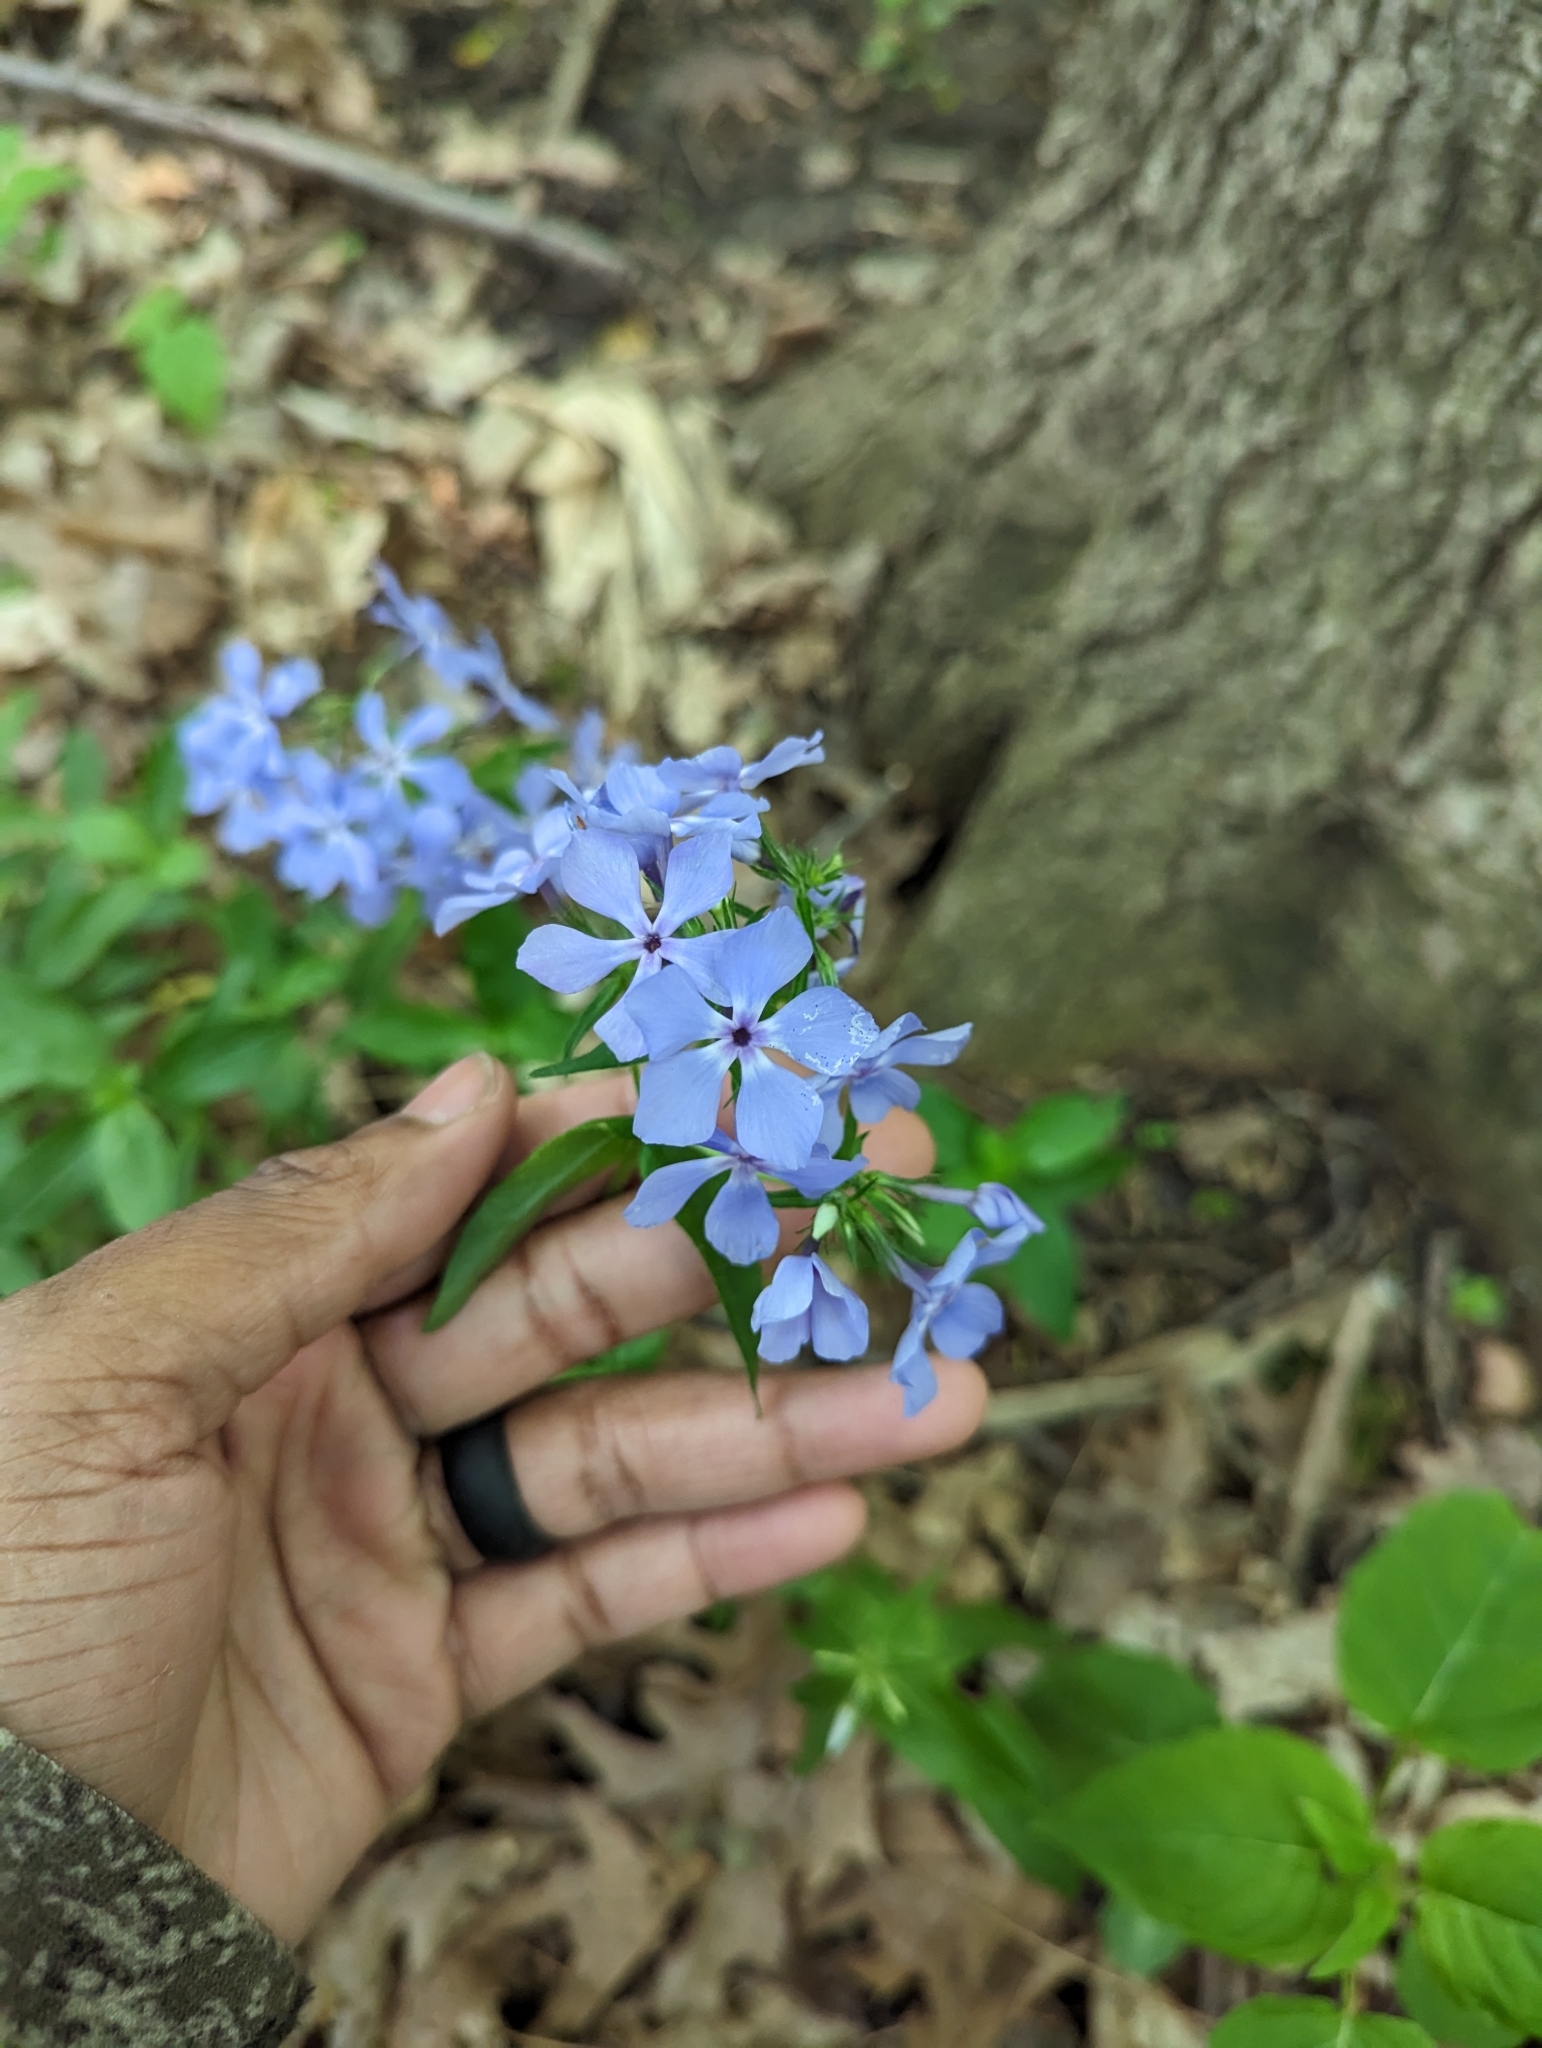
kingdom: Plantae
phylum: Tracheophyta
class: Magnoliopsida
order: Ericales
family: Polemoniaceae
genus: Phlox
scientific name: Phlox divaricata
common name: Blue phlox
